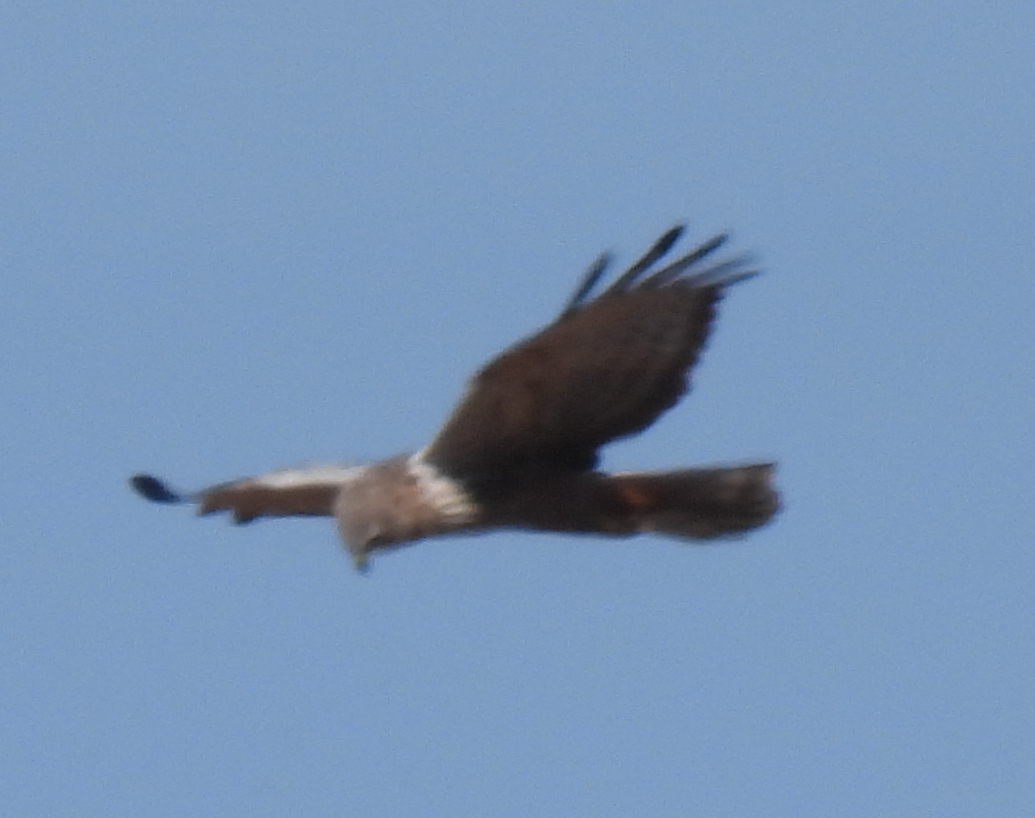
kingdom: Animalia
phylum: Chordata
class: Aves
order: Accipitriformes
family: Accipitridae
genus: Circus
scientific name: Circus ranivorus
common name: African marsh-harrier
